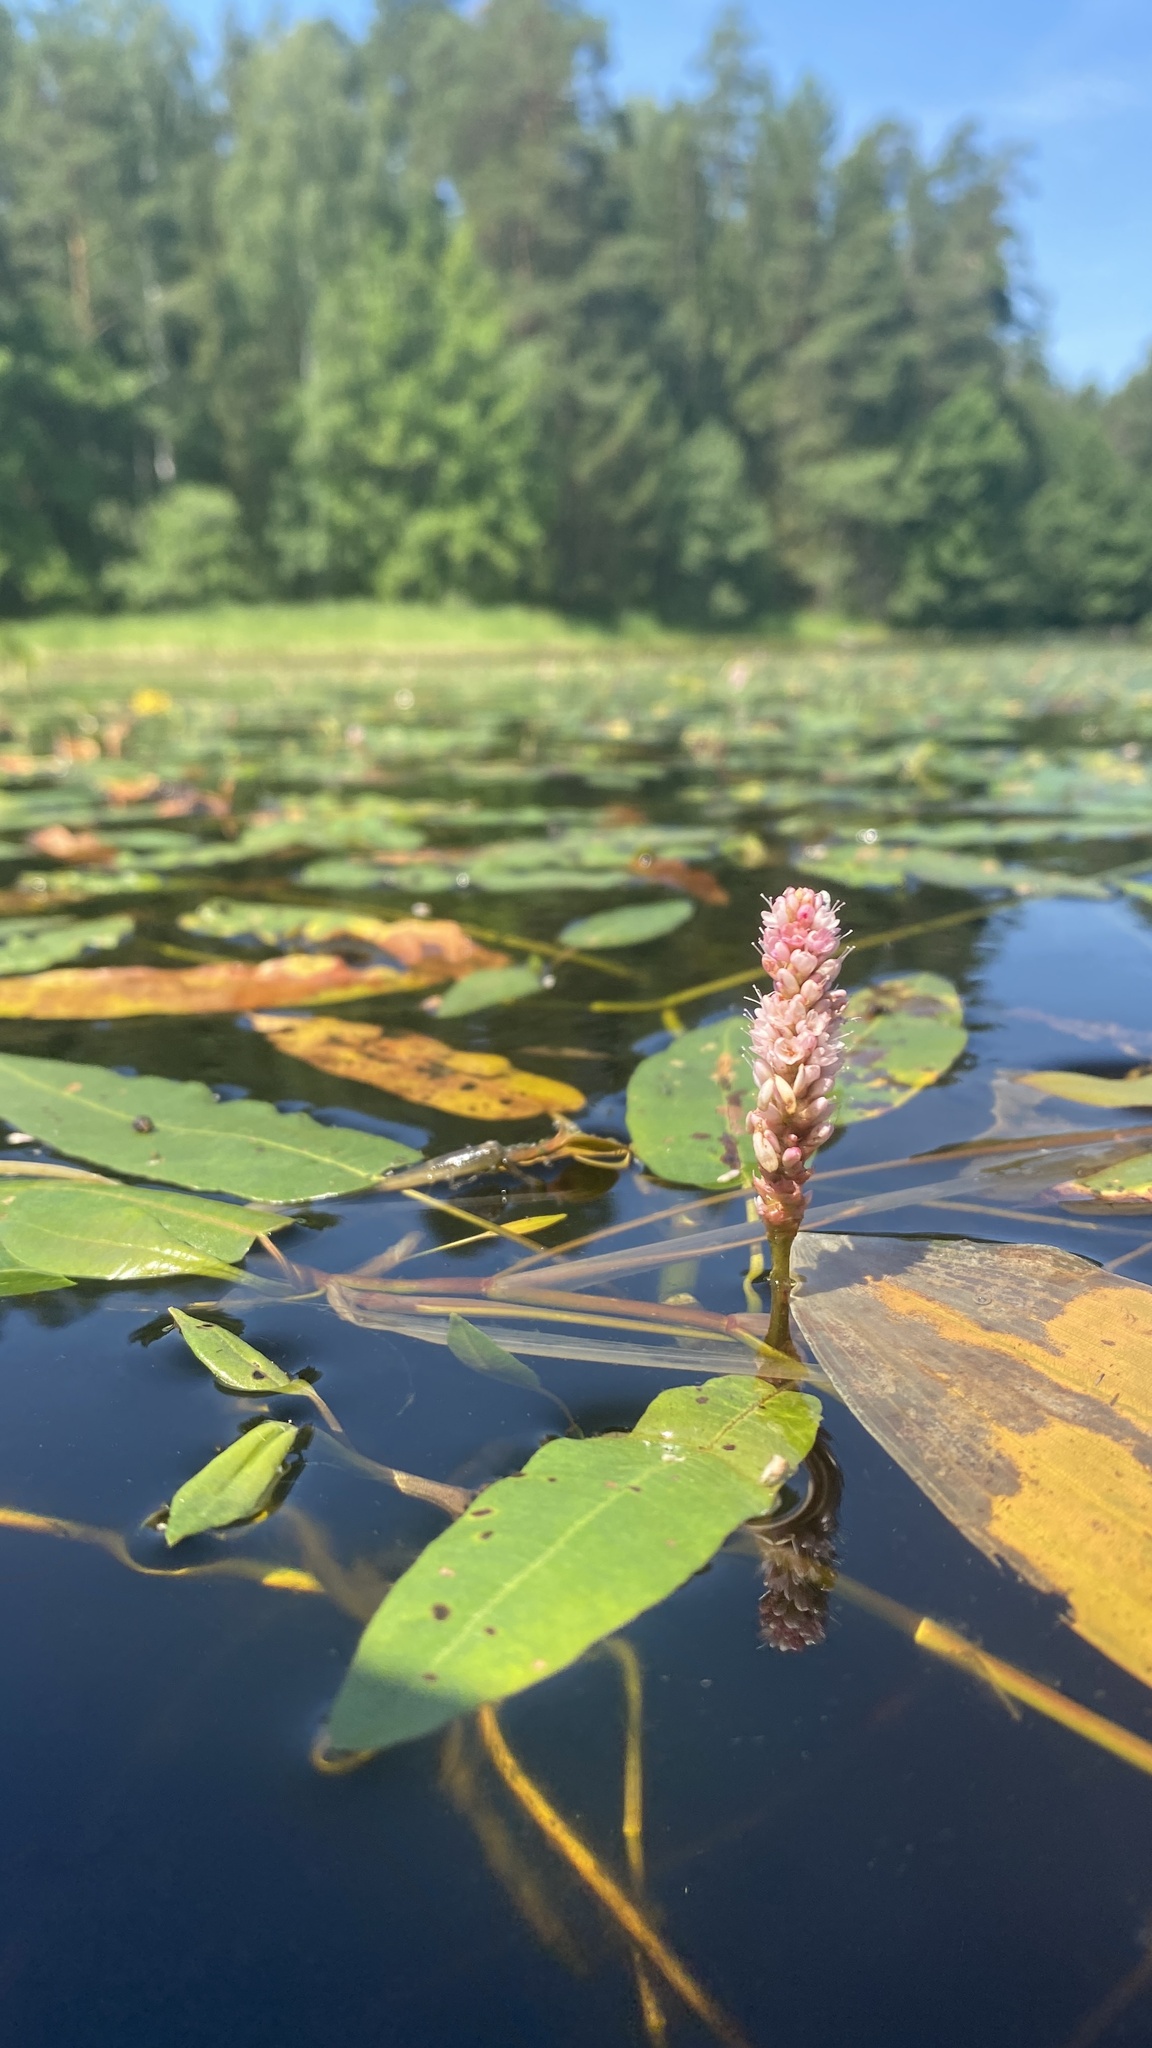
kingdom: Plantae
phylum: Tracheophyta
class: Magnoliopsida
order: Caryophyllales
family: Polygonaceae
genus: Persicaria
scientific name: Persicaria amphibia
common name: Amphibious bistort
